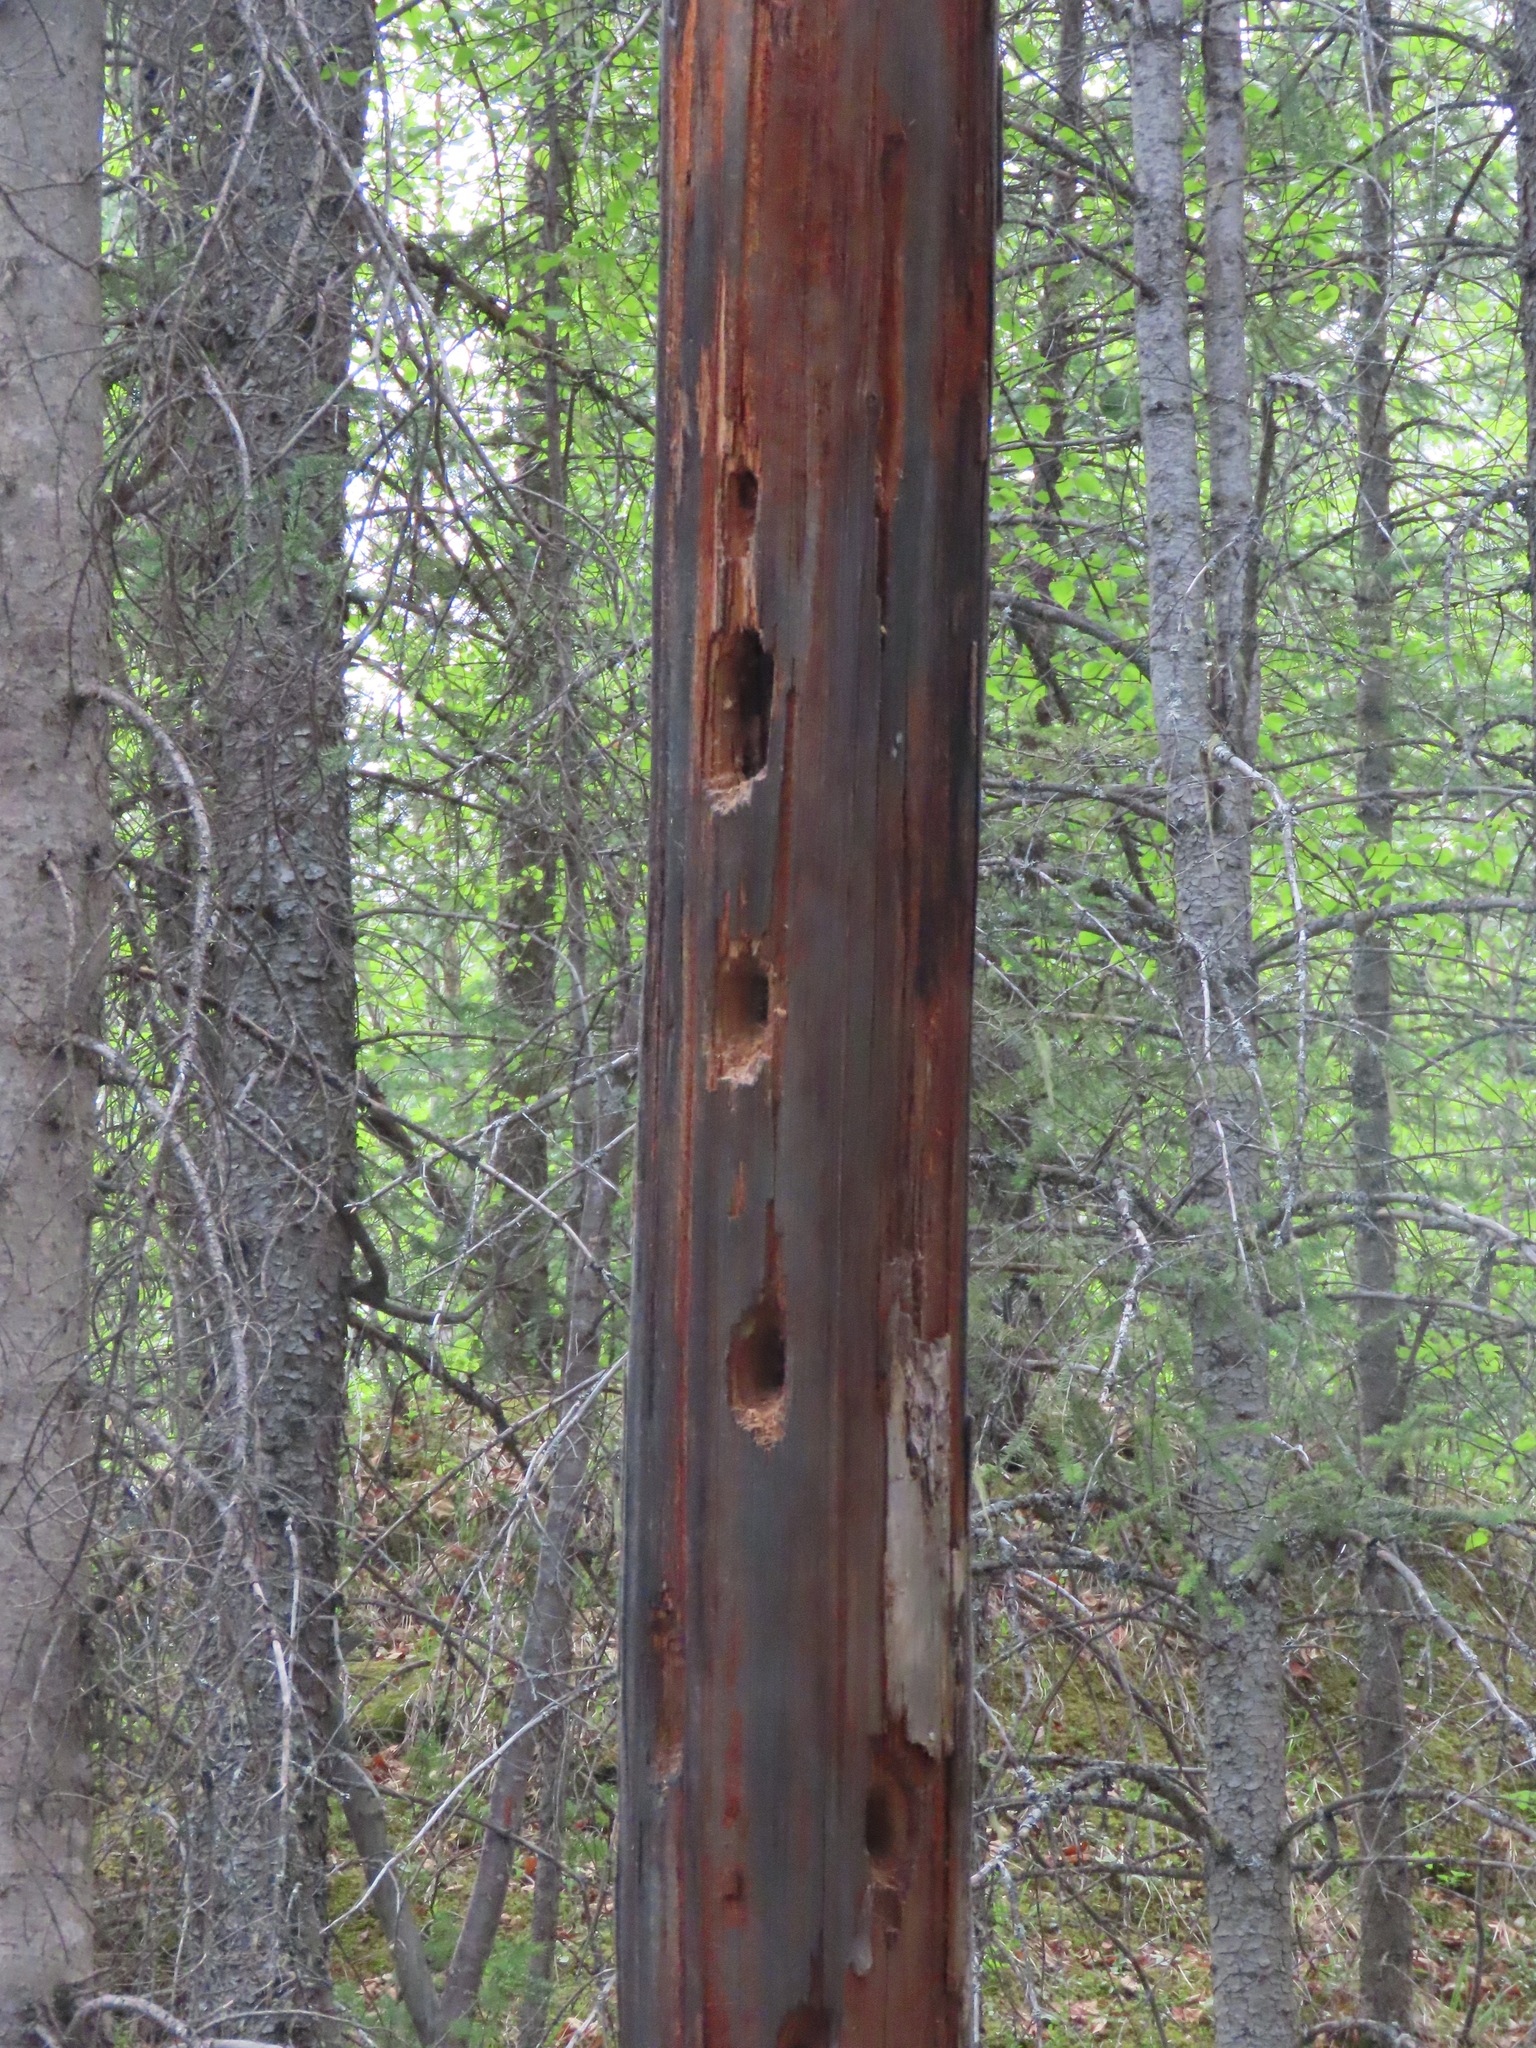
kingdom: Animalia
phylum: Chordata
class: Aves
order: Piciformes
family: Picidae
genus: Dryocopus
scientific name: Dryocopus pileatus
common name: Pileated woodpecker
